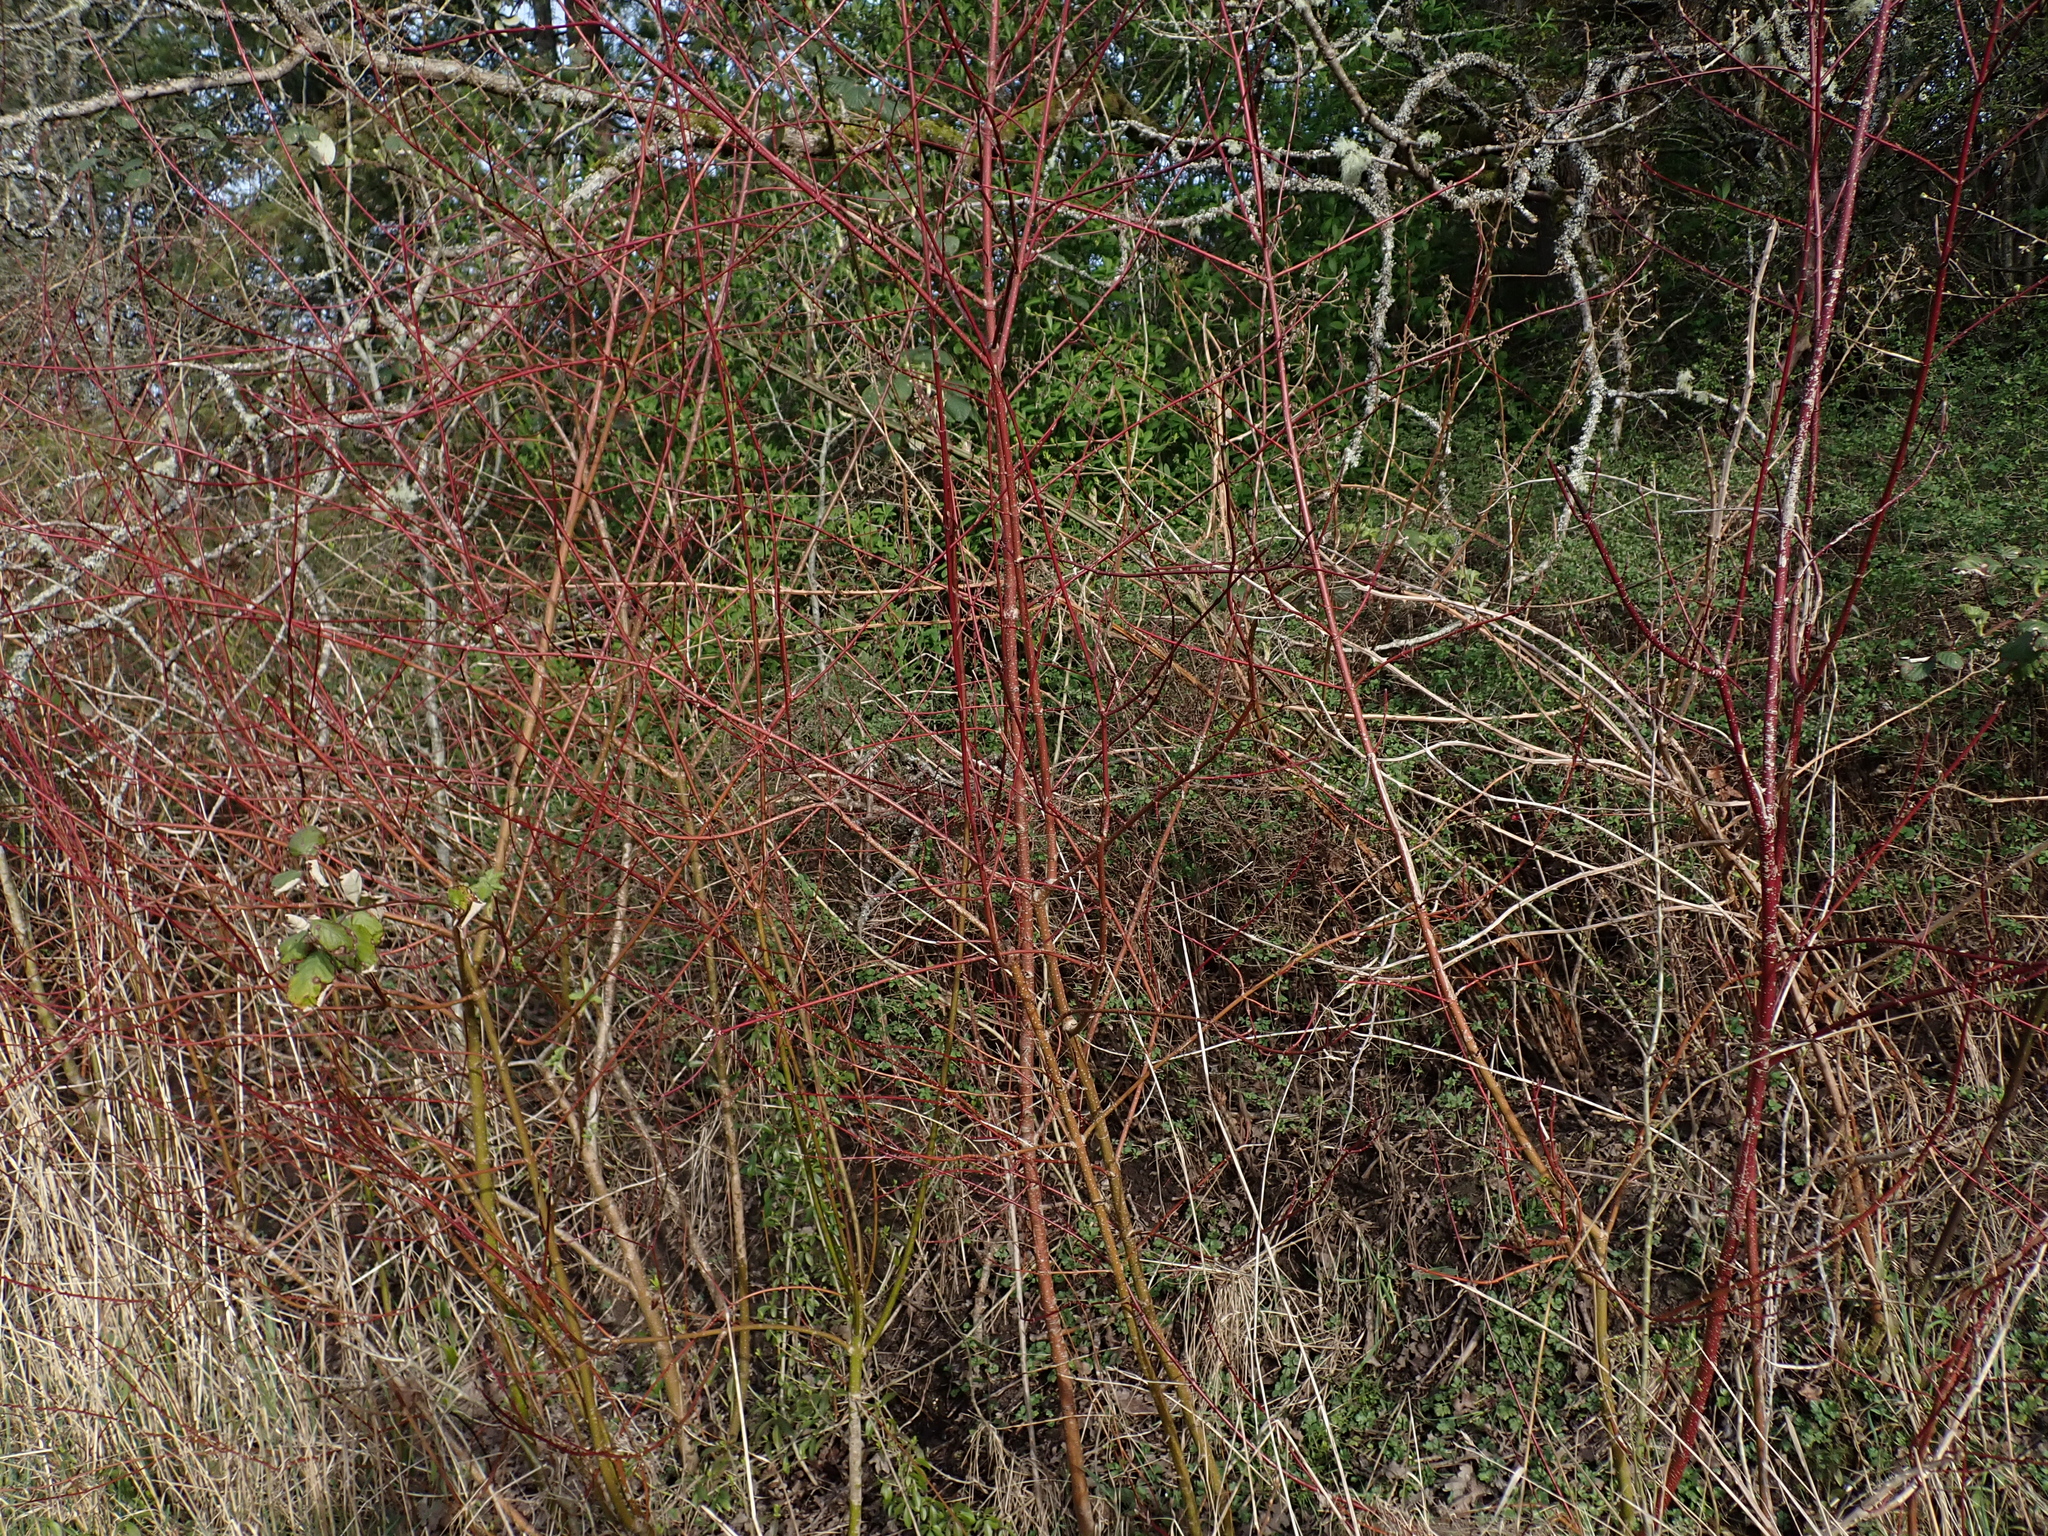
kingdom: Plantae
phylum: Tracheophyta
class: Magnoliopsida
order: Cornales
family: Cornaceae
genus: Cornus
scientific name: Cornus sericea
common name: Red-osier dogwood
